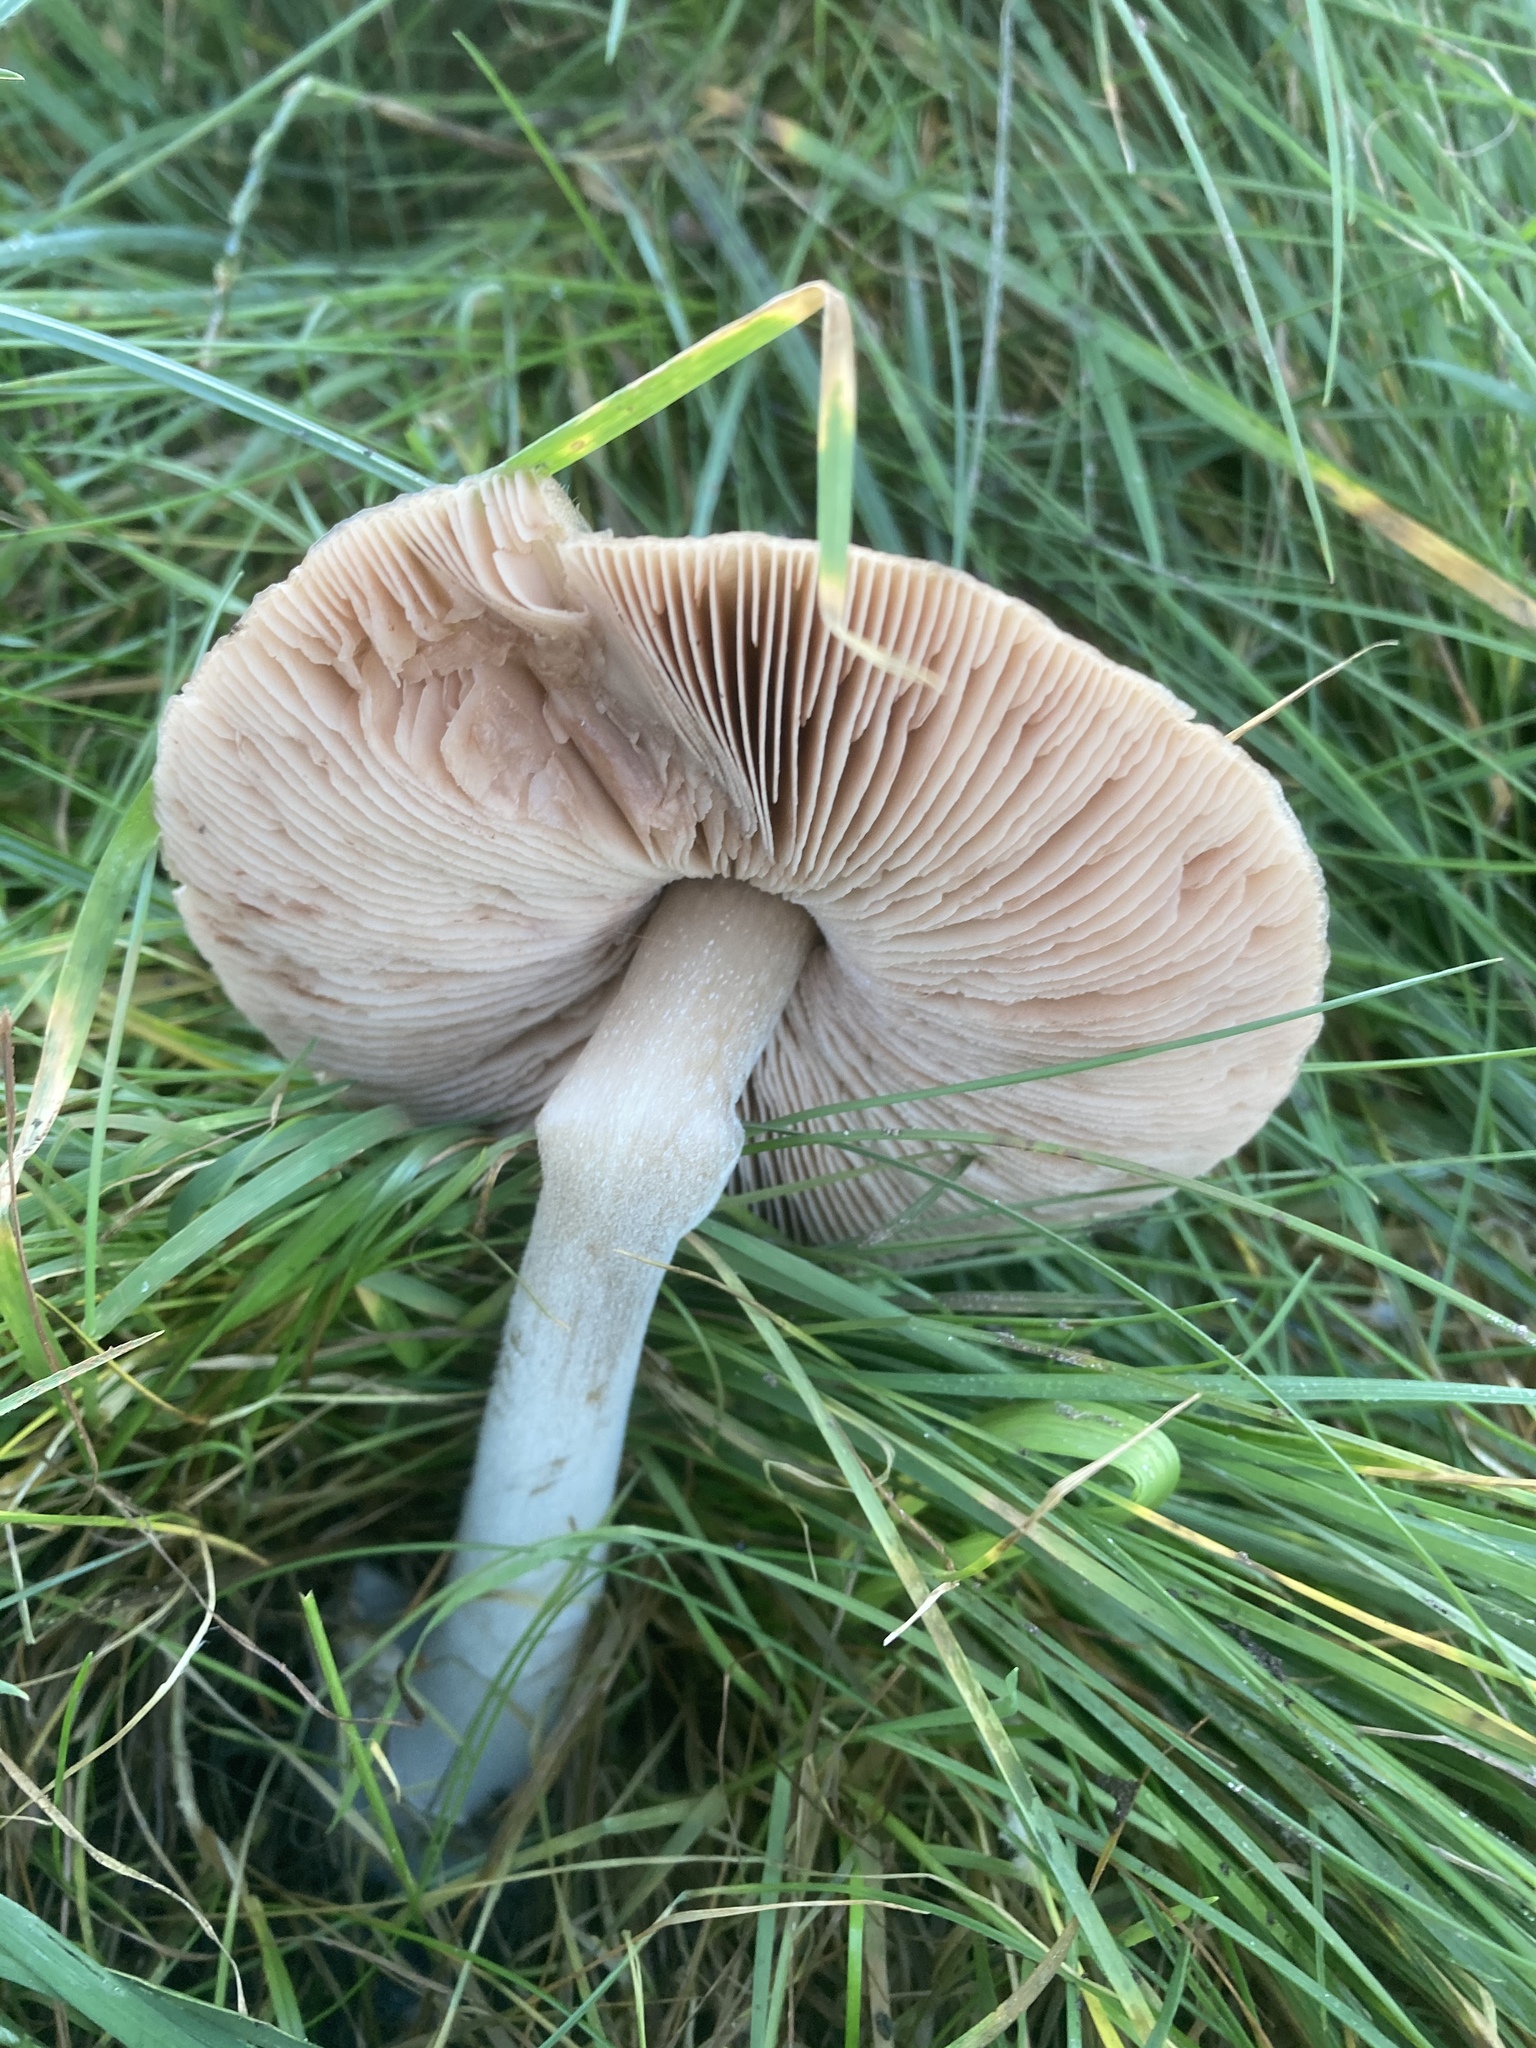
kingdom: Fungi
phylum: Basidiomycota
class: Agaricomycetes
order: Agaricales
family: Pluteaceae
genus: Volvopluteus
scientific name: Volvopluteus gloiocephalus
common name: Stubble rosegill
